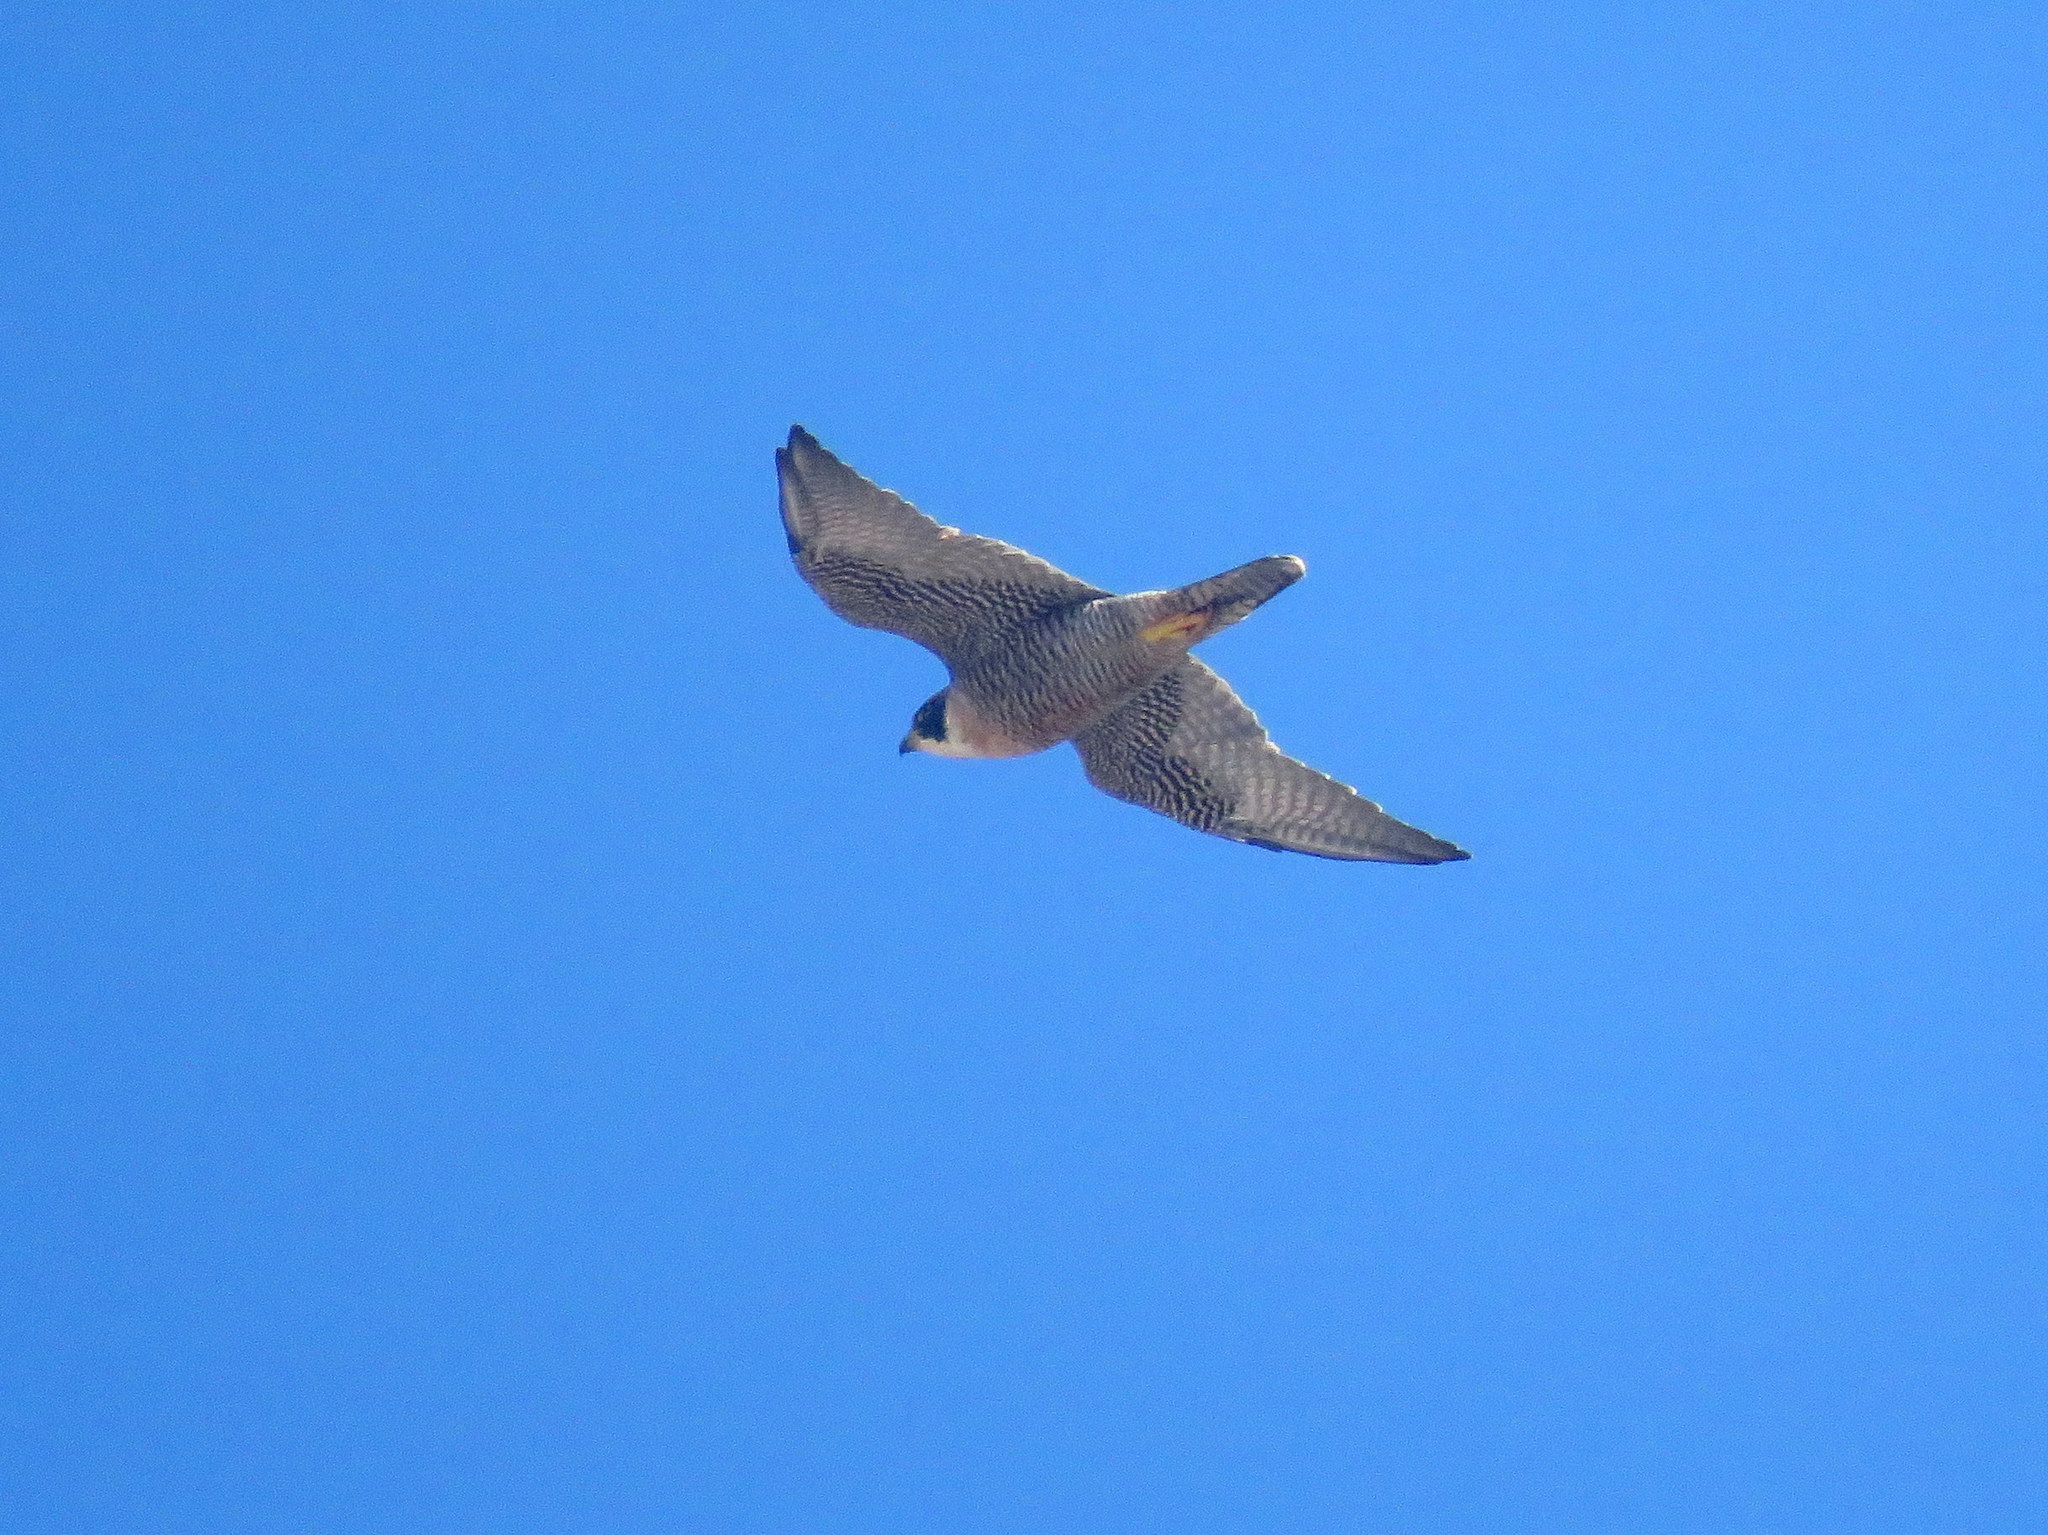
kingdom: Animalia
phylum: Chordata
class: Aves
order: Falconiformes
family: Falconidae
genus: Falco
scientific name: Falco peregrinus
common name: Peregrine falcon
